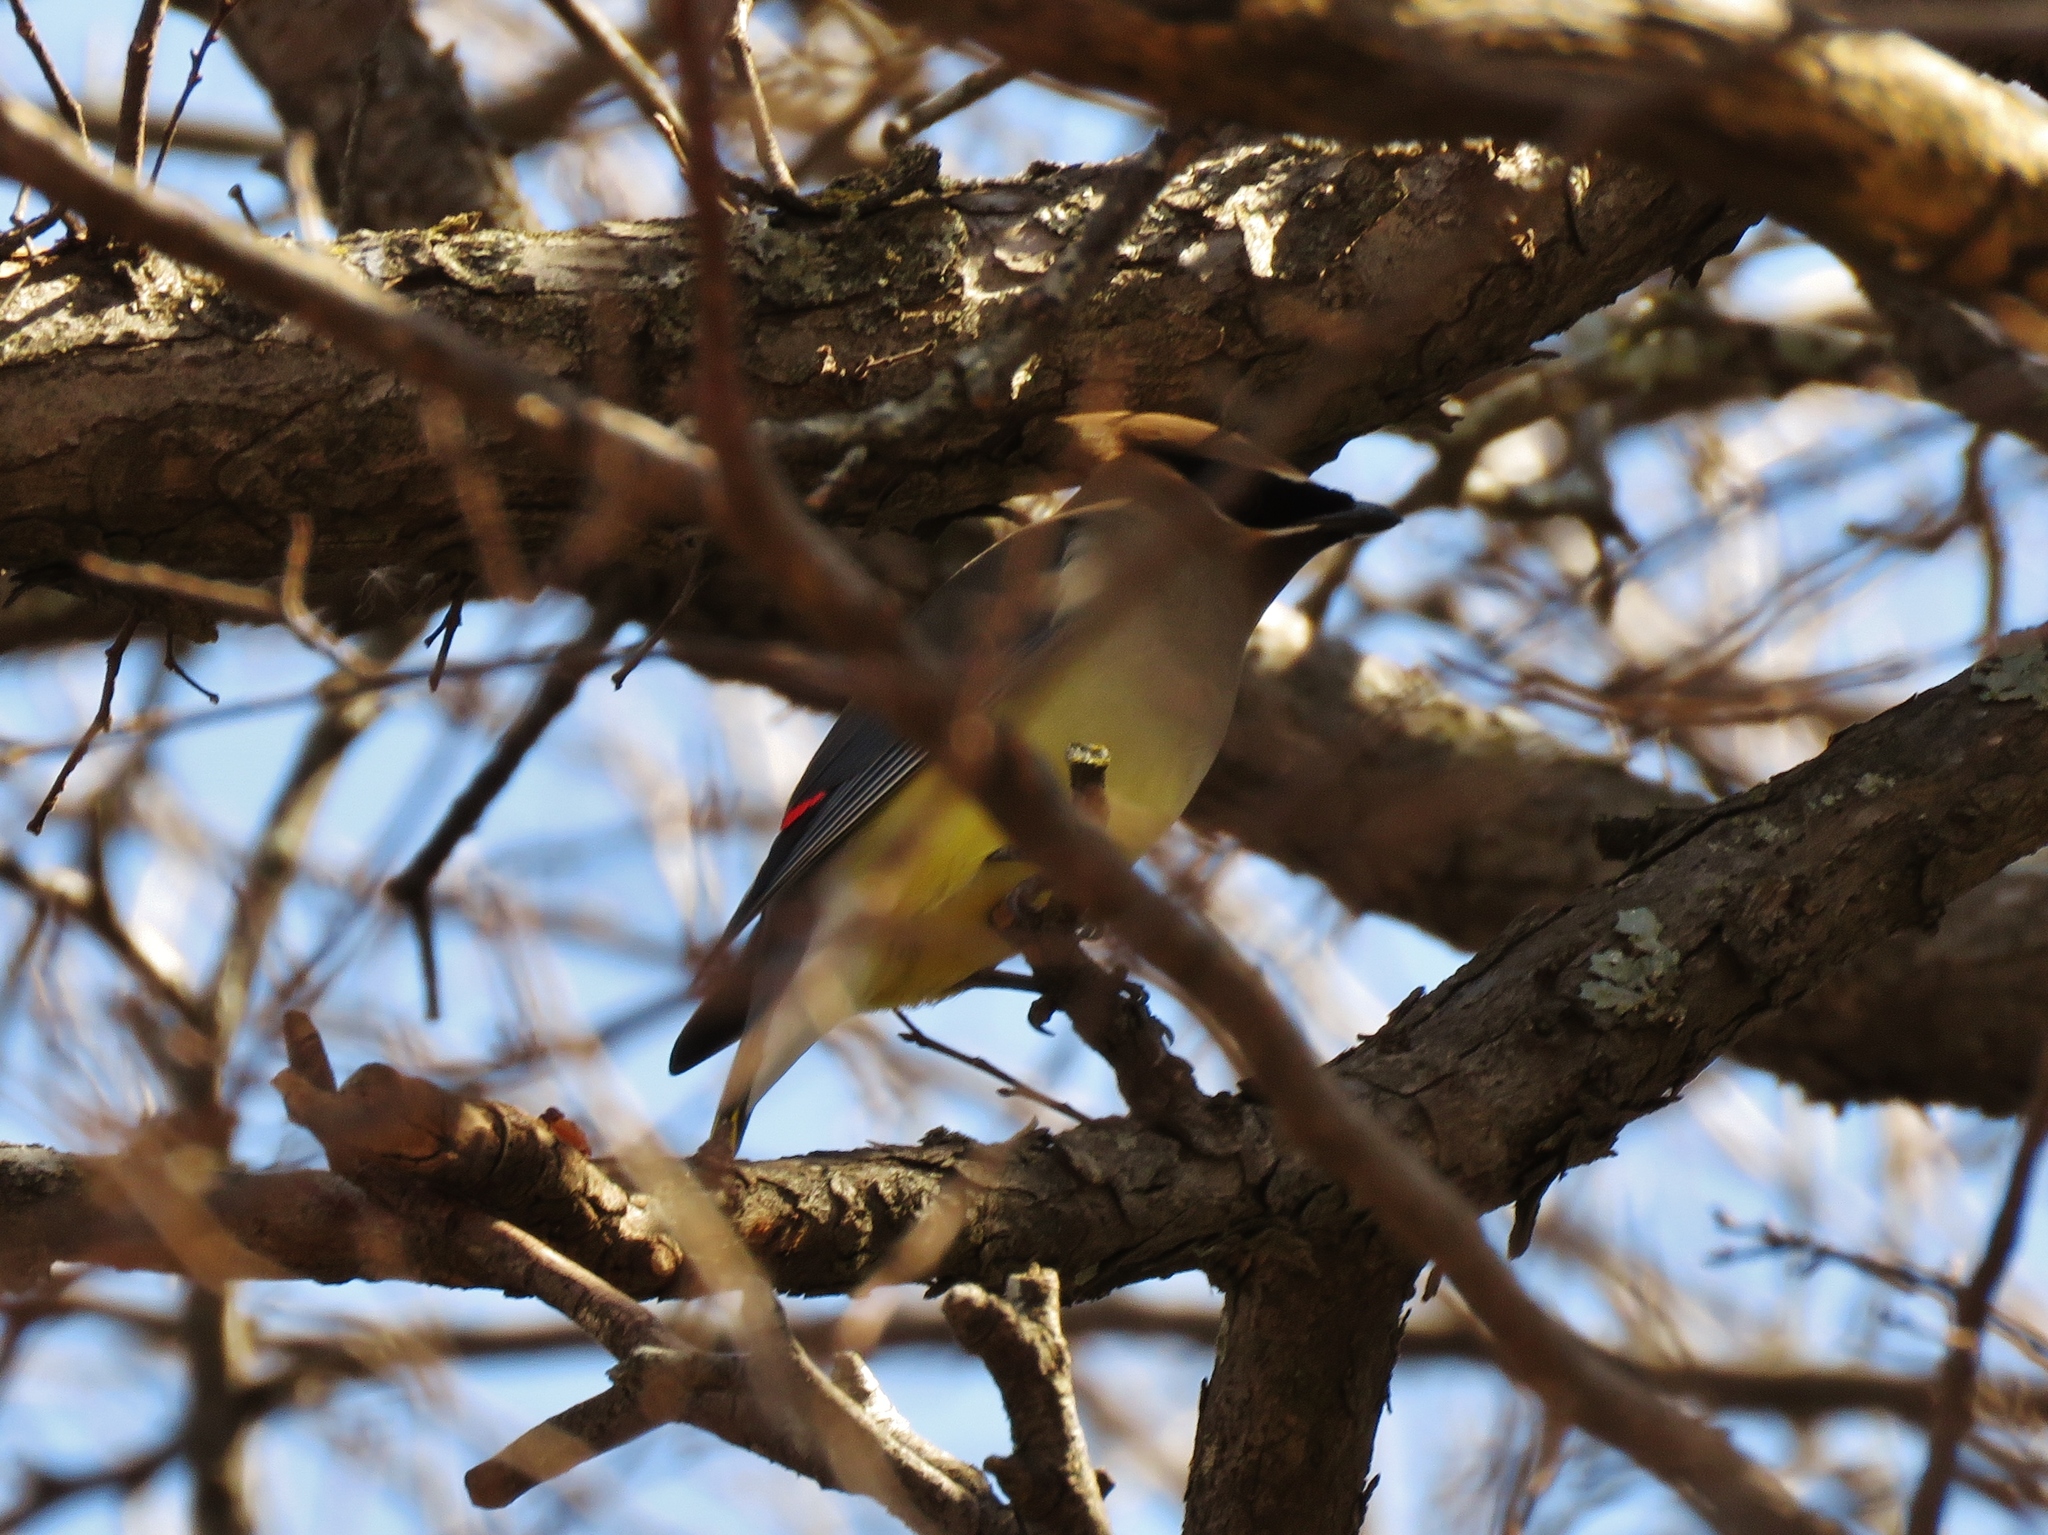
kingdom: Animalia
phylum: Chordata
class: Aves
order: Passeriformes
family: Bombycillidae
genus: Bombycilla
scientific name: Bombycilla cedrorum
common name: Cedar waxwing
